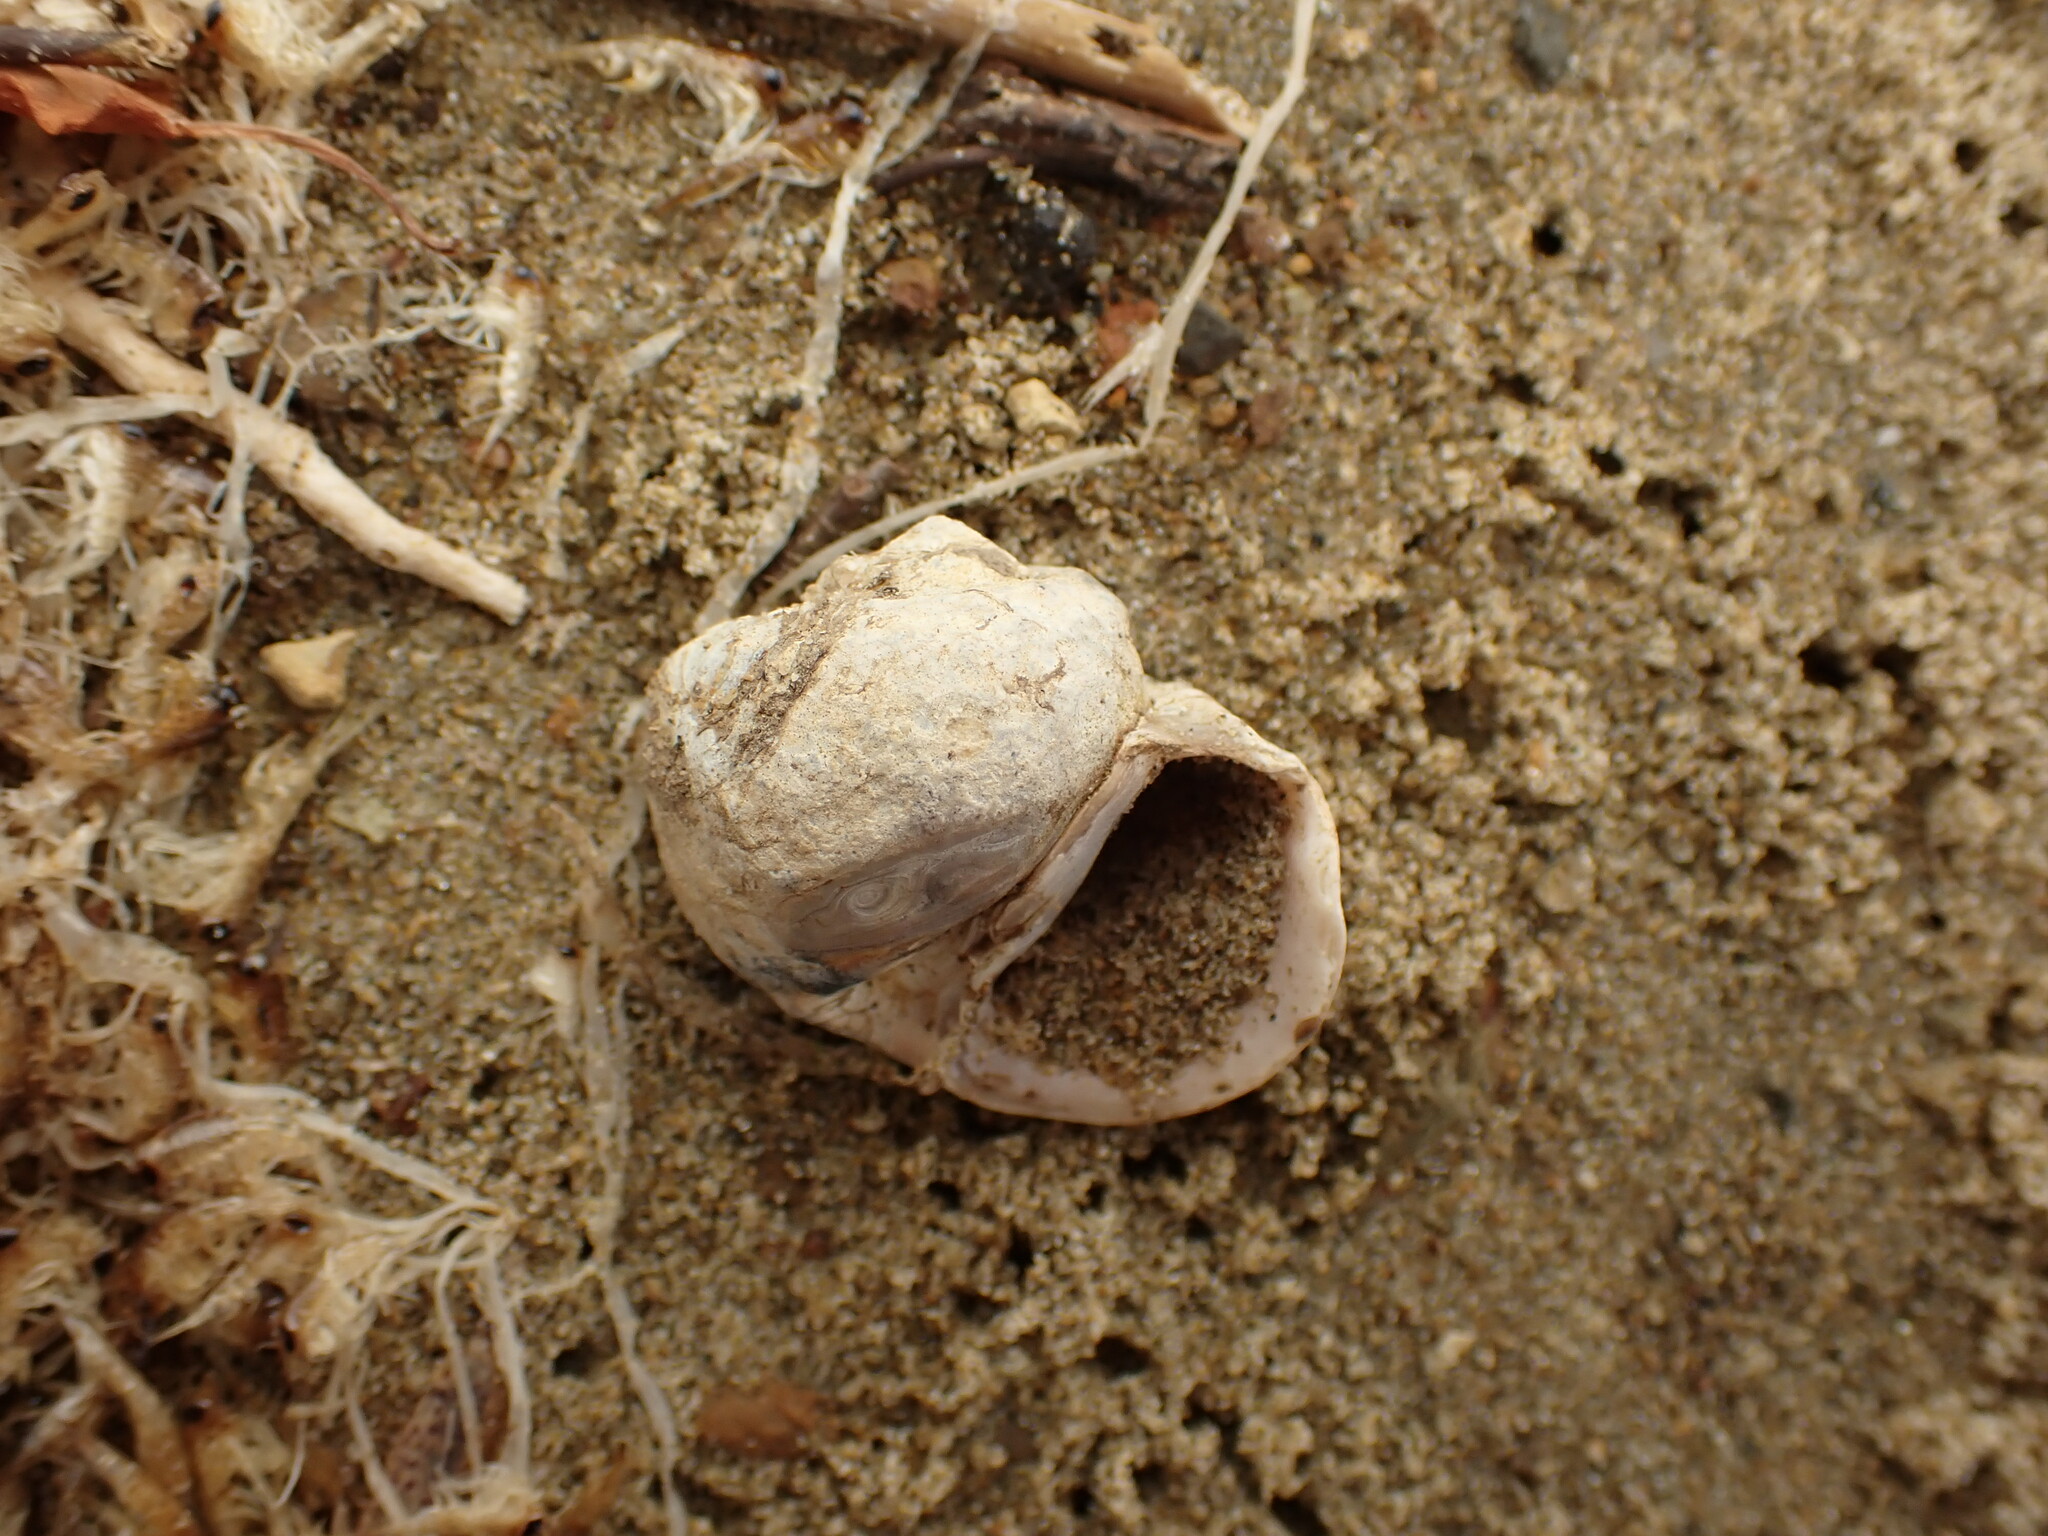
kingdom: Animalia
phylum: Mollusca
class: Gastropoda
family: Amphibolidae
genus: Amphibola
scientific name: Amphibola crenata
